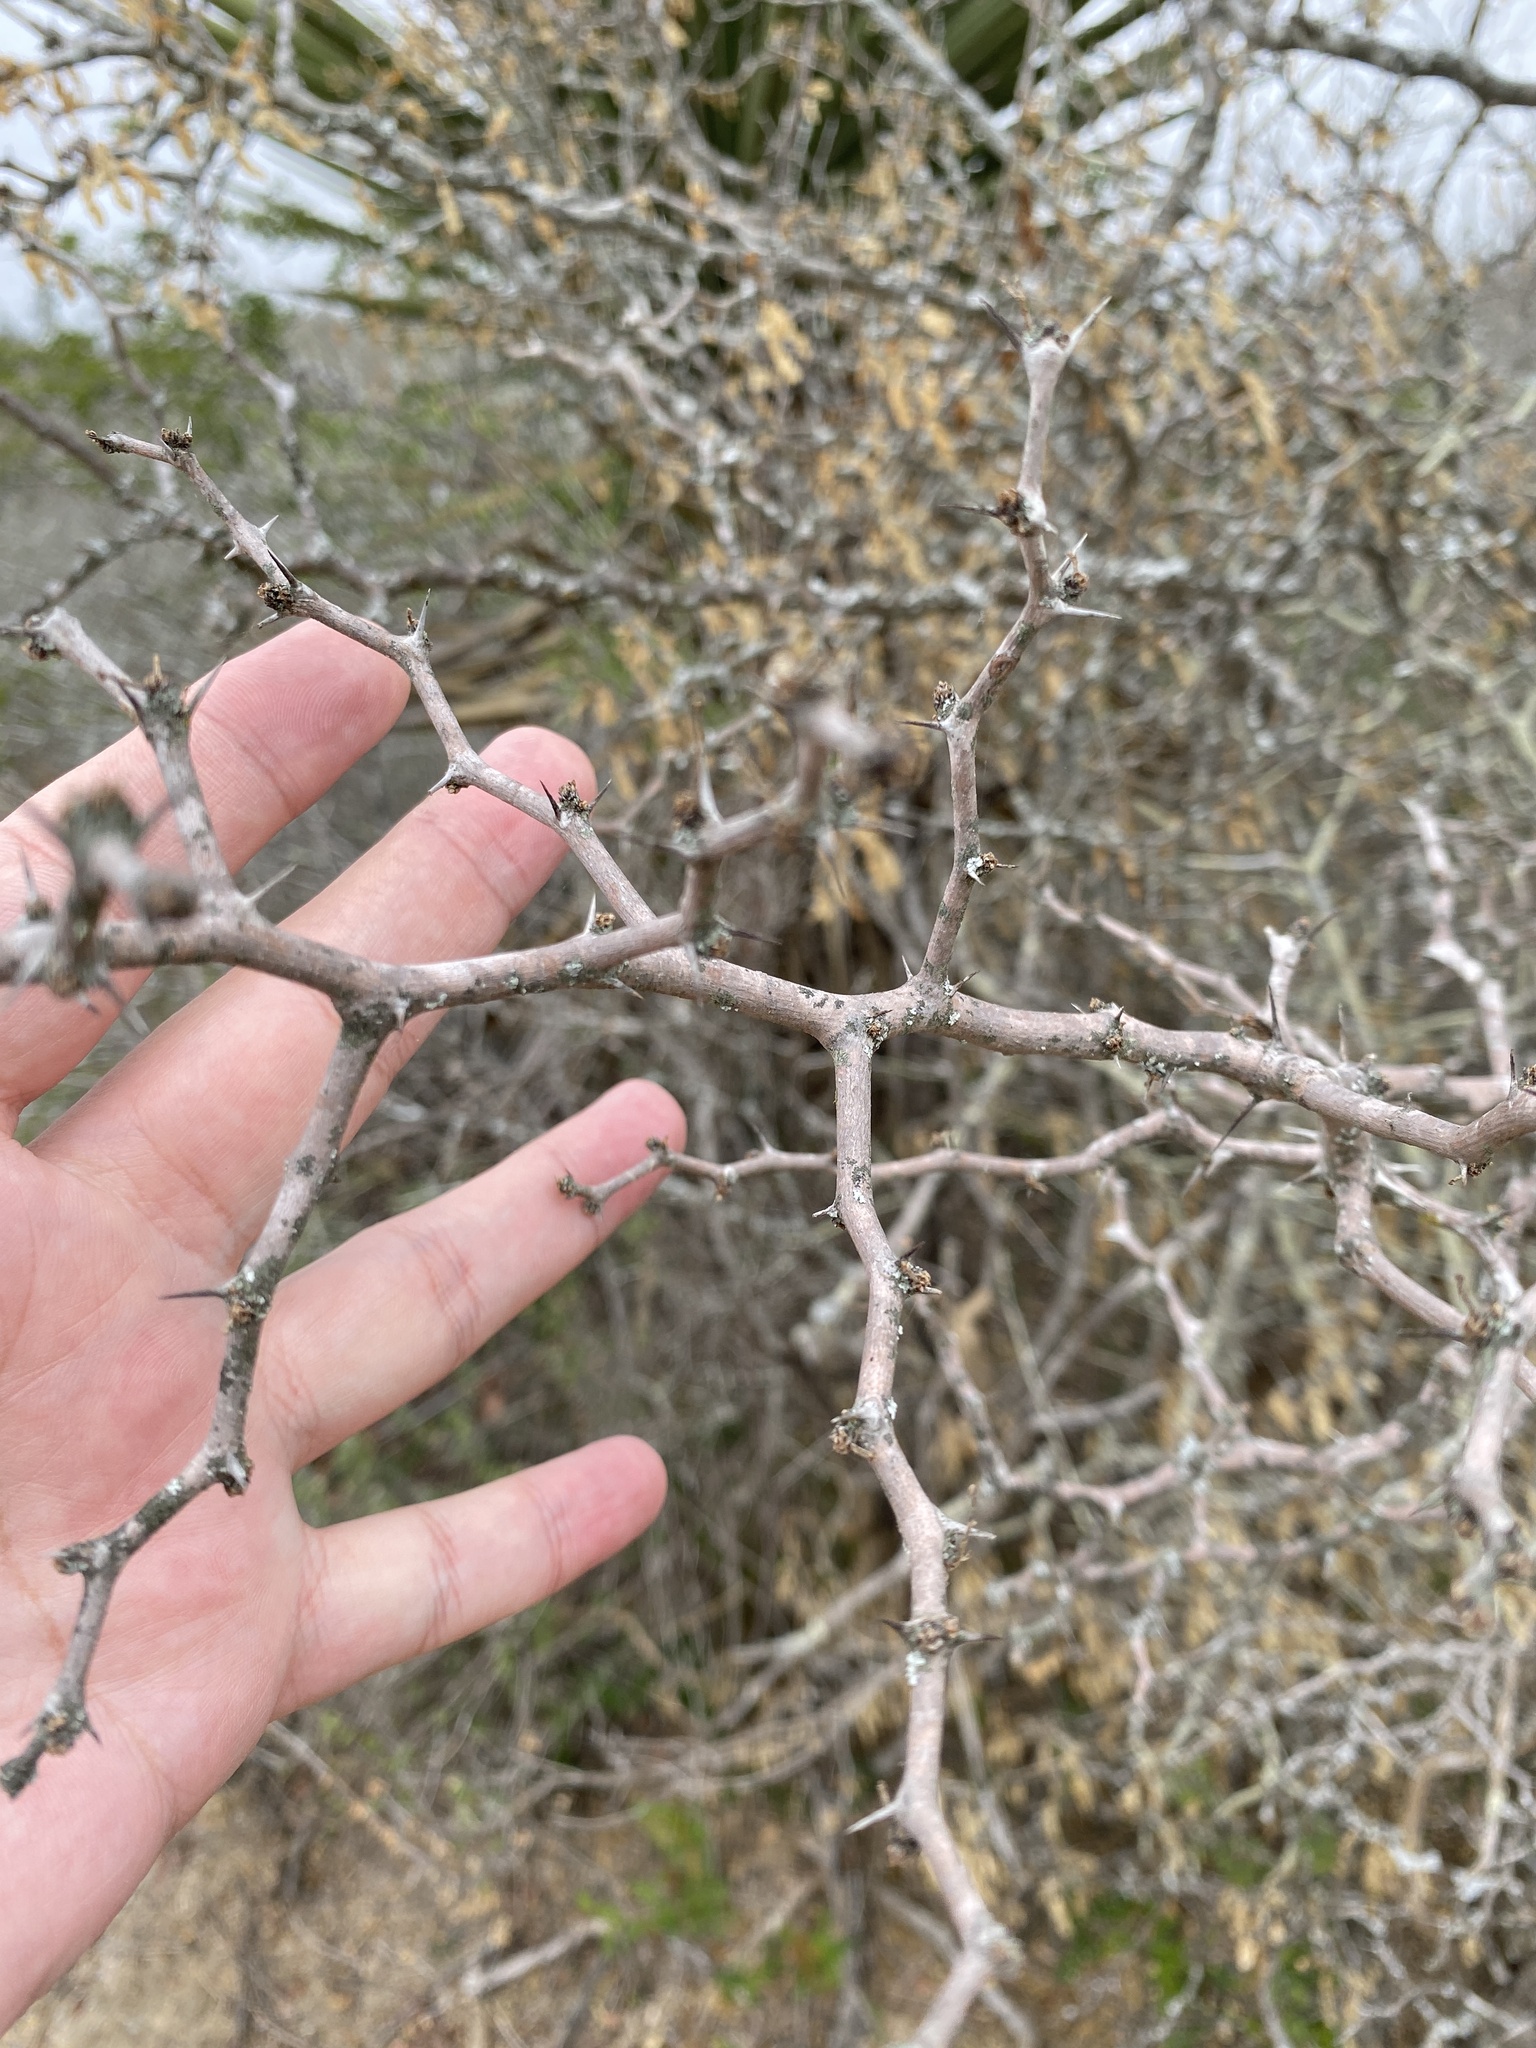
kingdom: Plantae
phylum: Tracheophyta
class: Magnoliopsida
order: Fabales
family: Fabaceae
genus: Vachellia
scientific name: Vachellia rigidula
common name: Blackbrush
